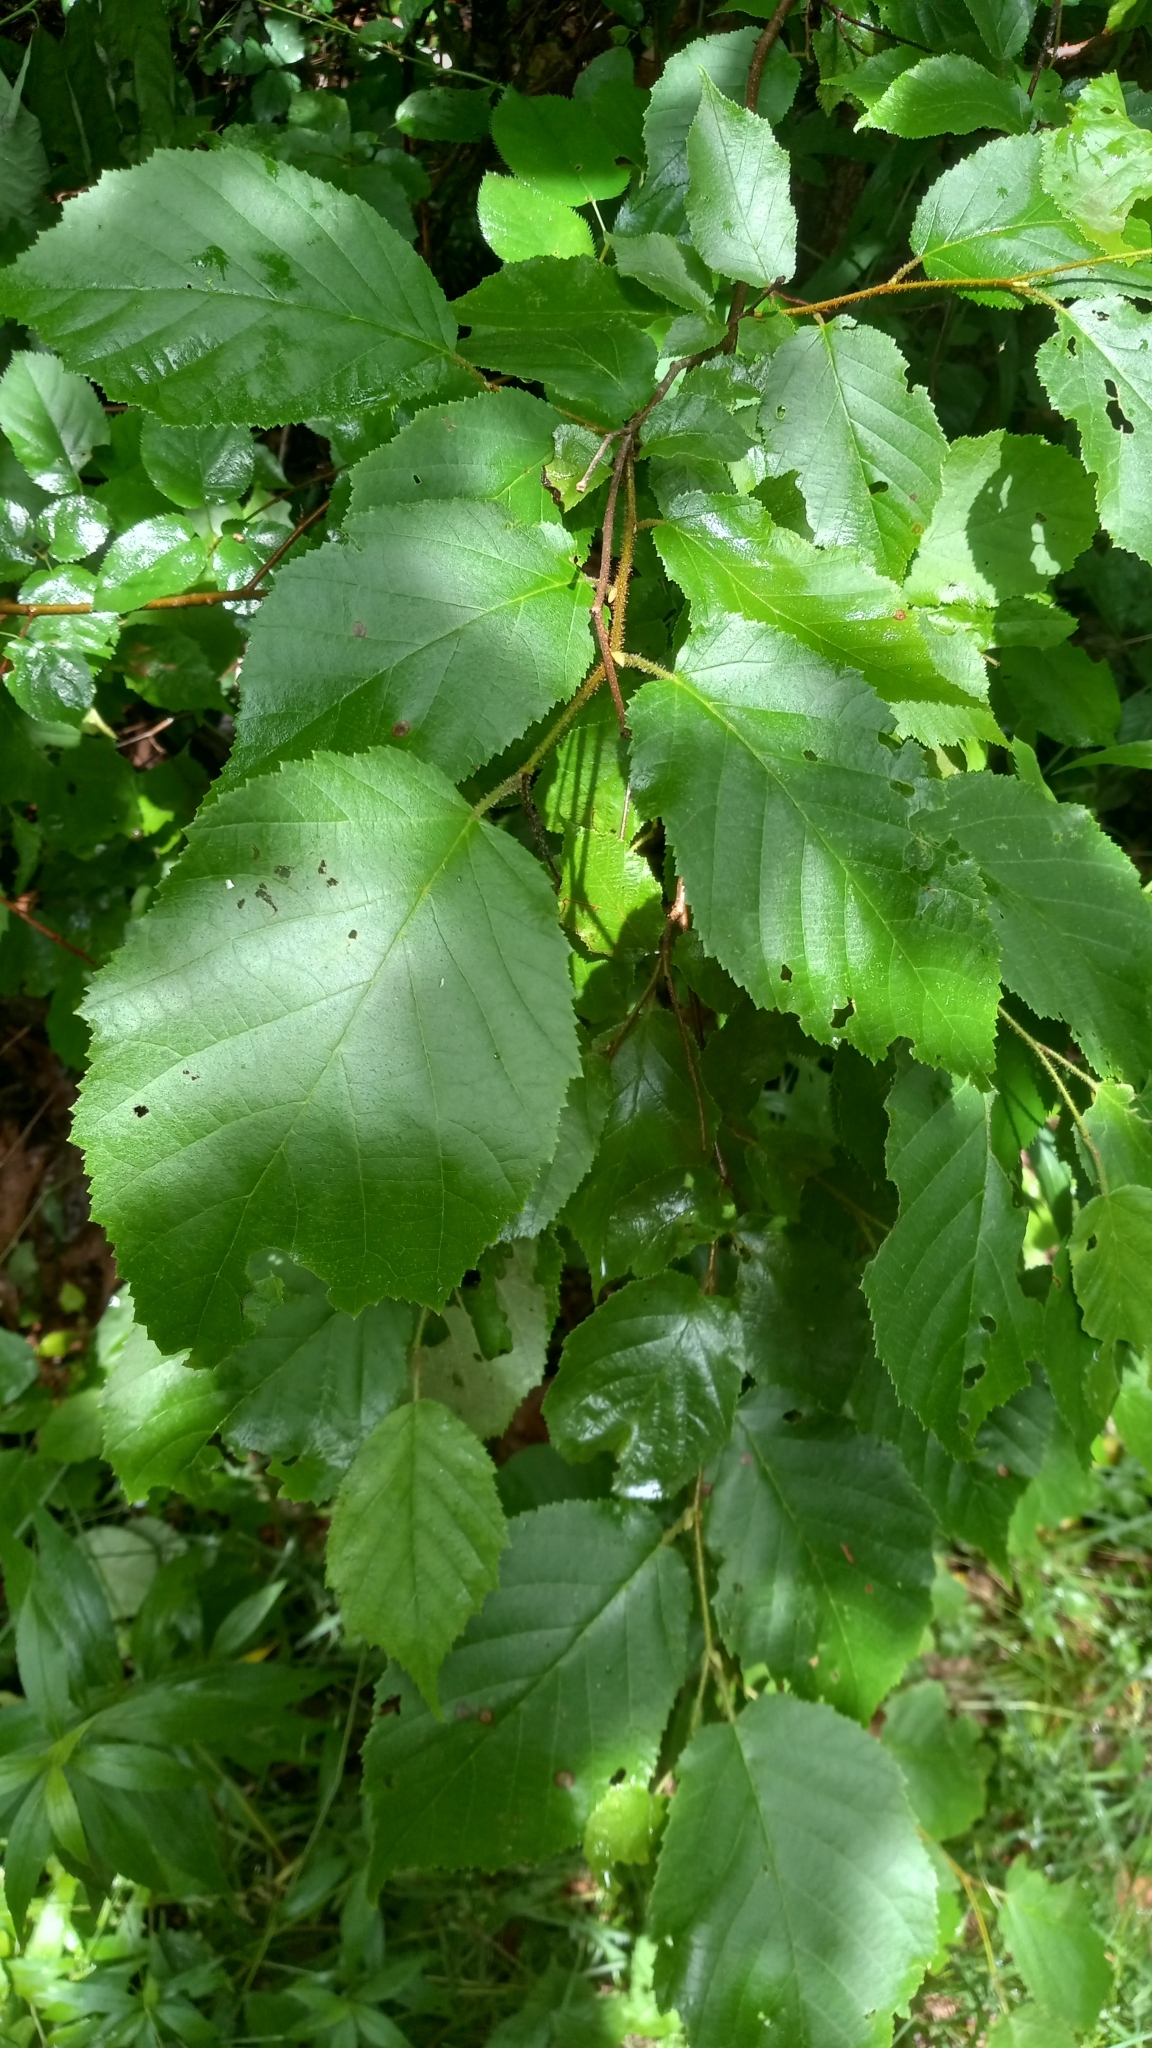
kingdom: Plantae
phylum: Tracheophyta
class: Magnoliopsida
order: Fagales
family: Betulaceae
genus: Corylus
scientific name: Corylus americana
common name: American hazel
